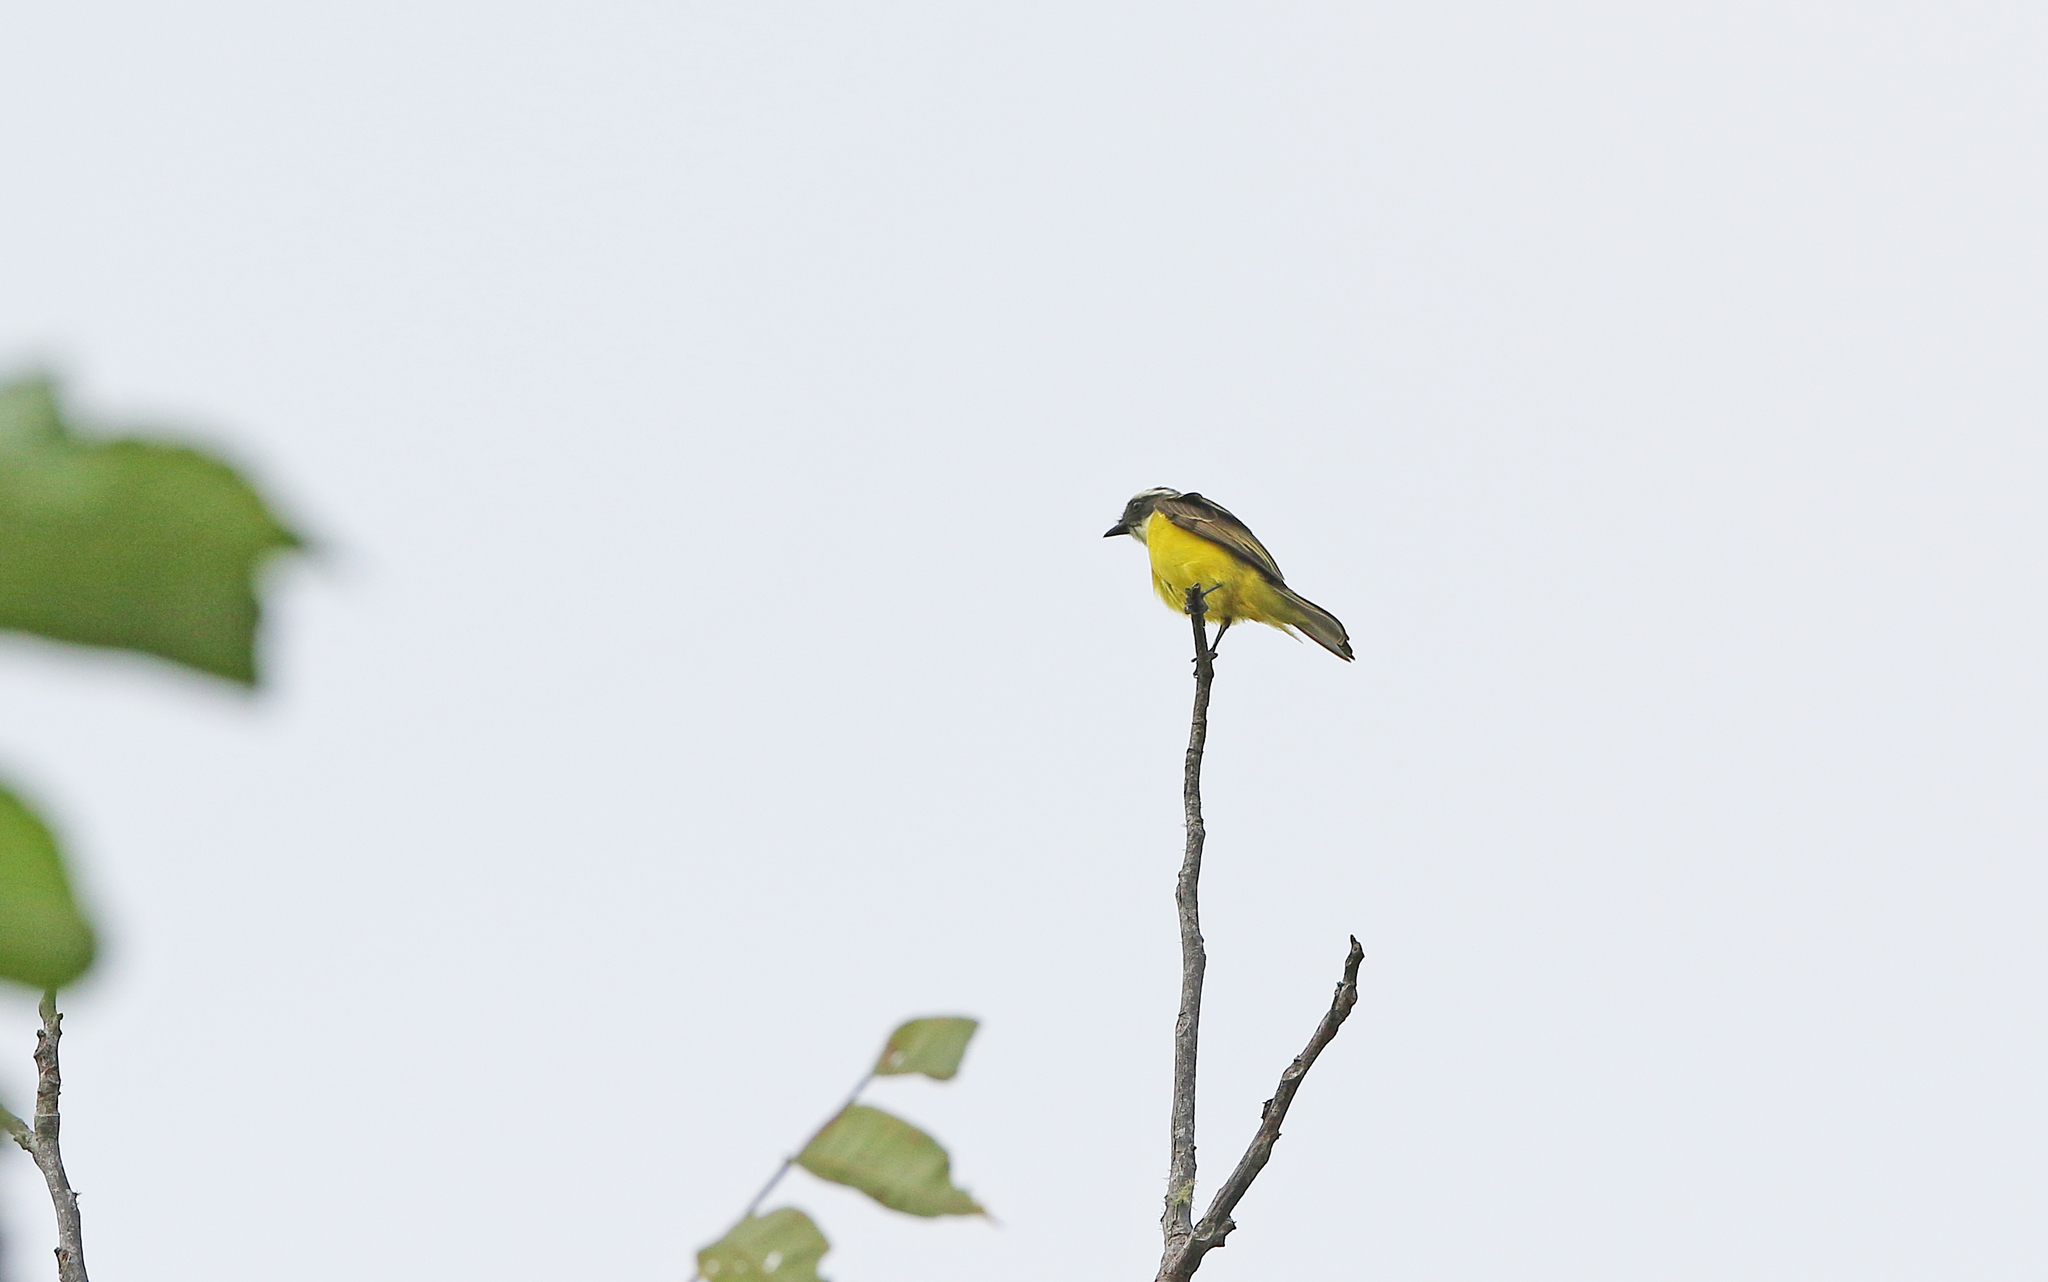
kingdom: Animalia
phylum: Chordata
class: Aves
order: Passeriformes
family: Tyrannidae
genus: Myiozetetes
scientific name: Myiozetetes similis
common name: Social flycatcher
